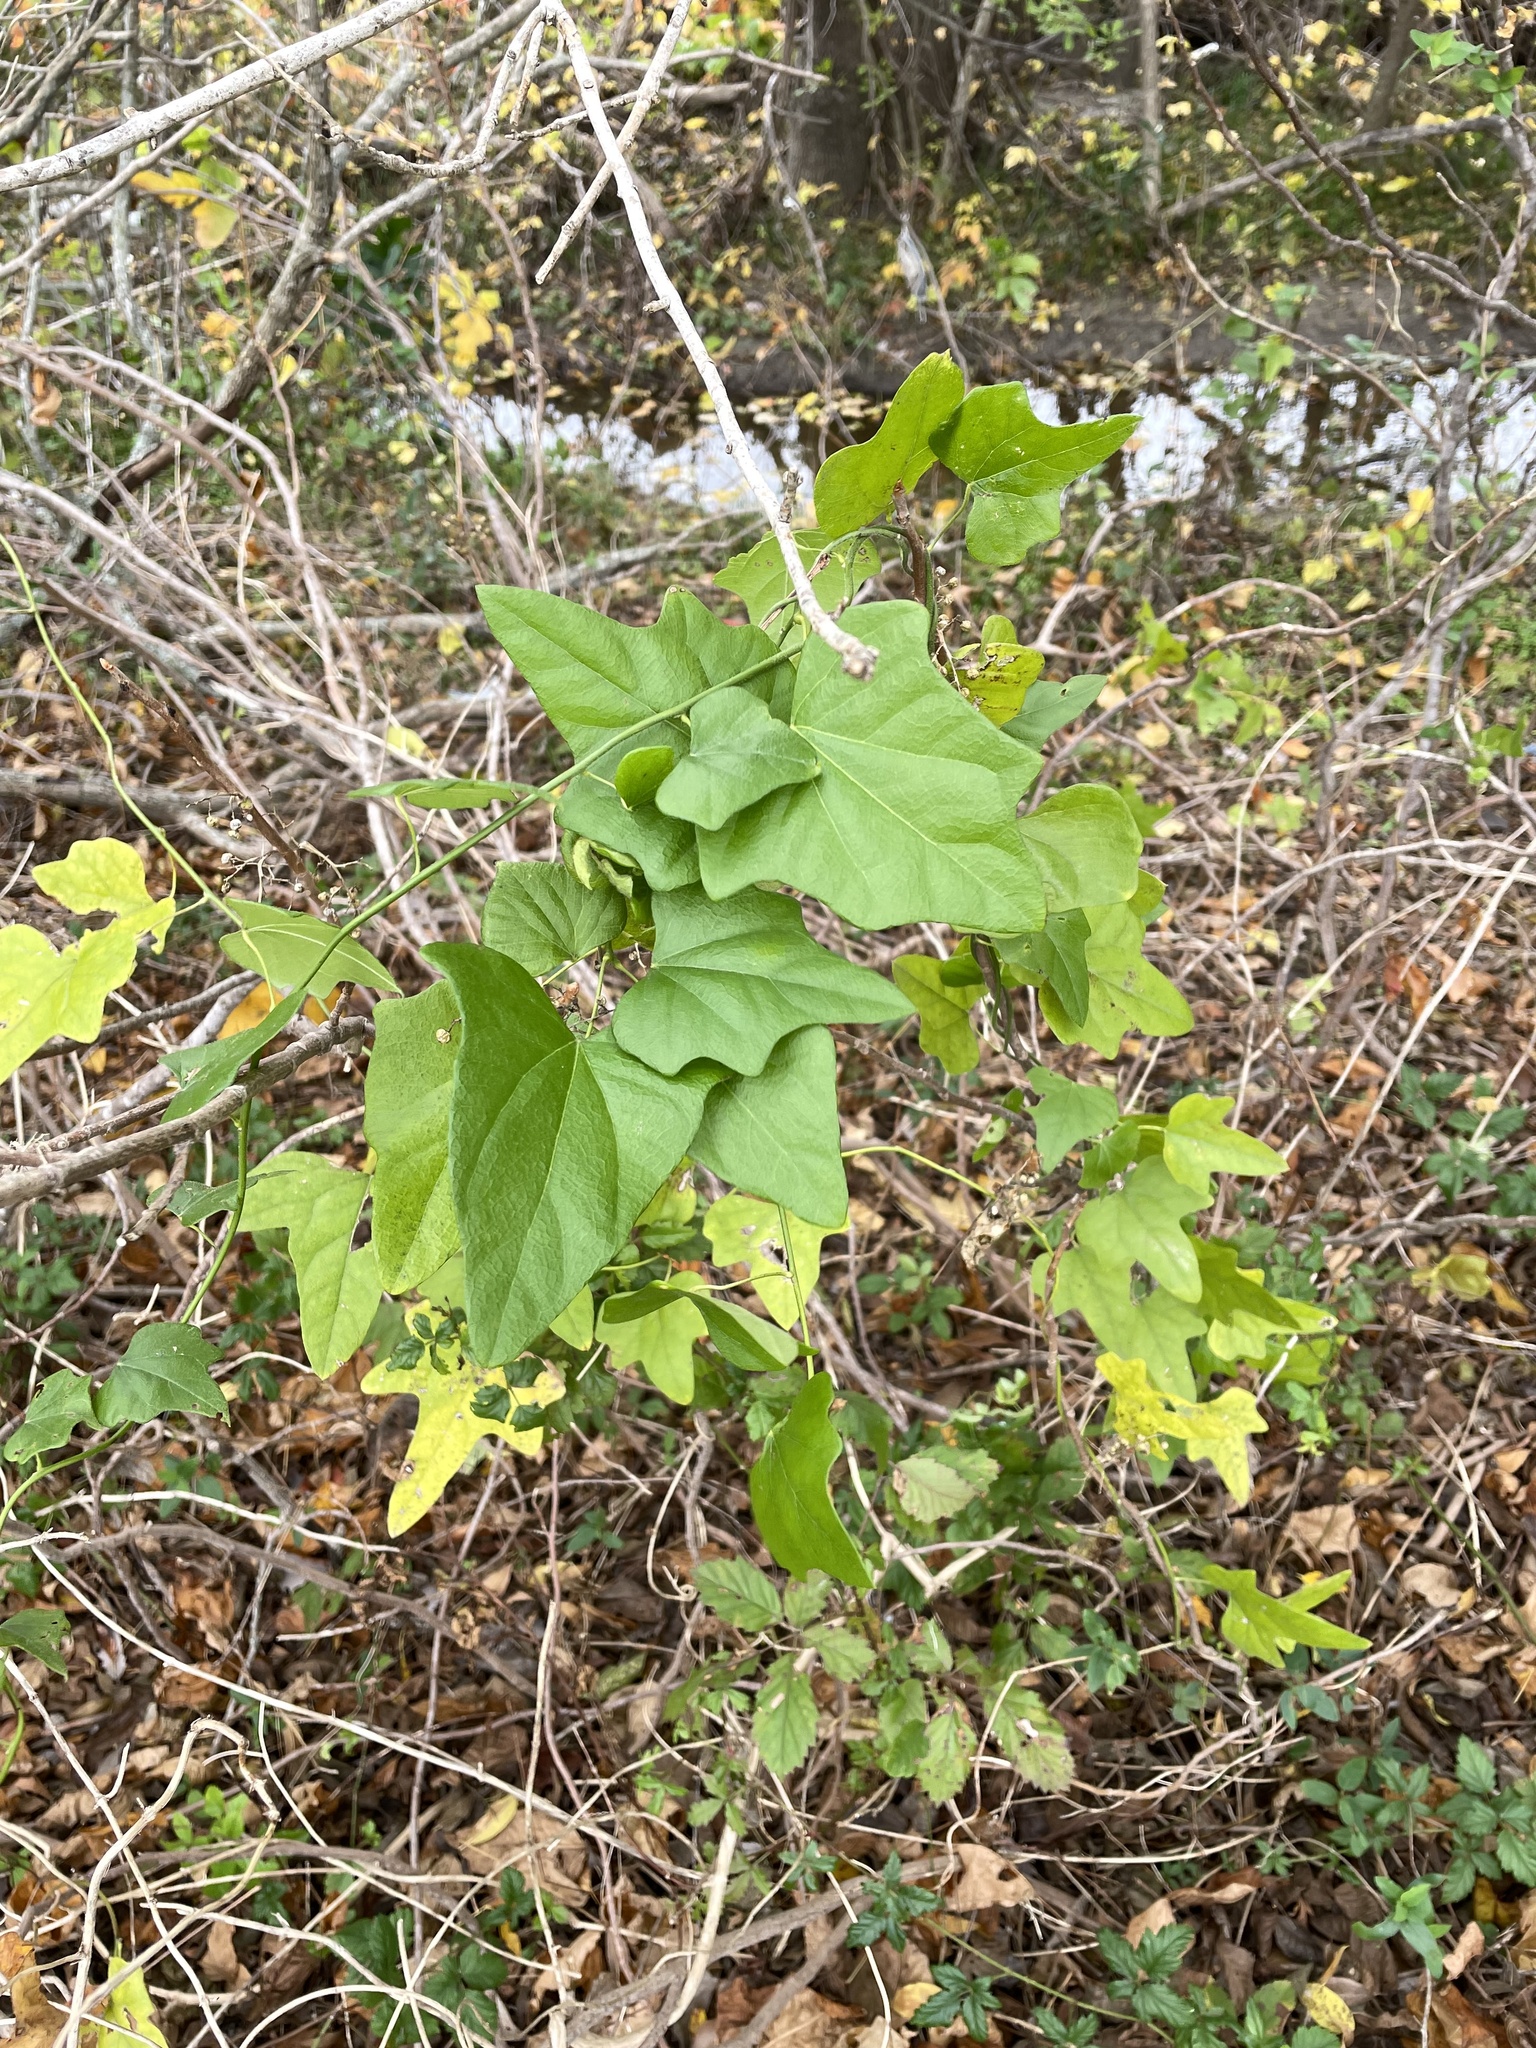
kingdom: Plantae
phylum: Tracheophyta
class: Magnoliopsida
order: Ranunculales
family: Menispermaceae
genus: Cocculus
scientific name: Cocculus carolinus
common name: Carolina moonseed
